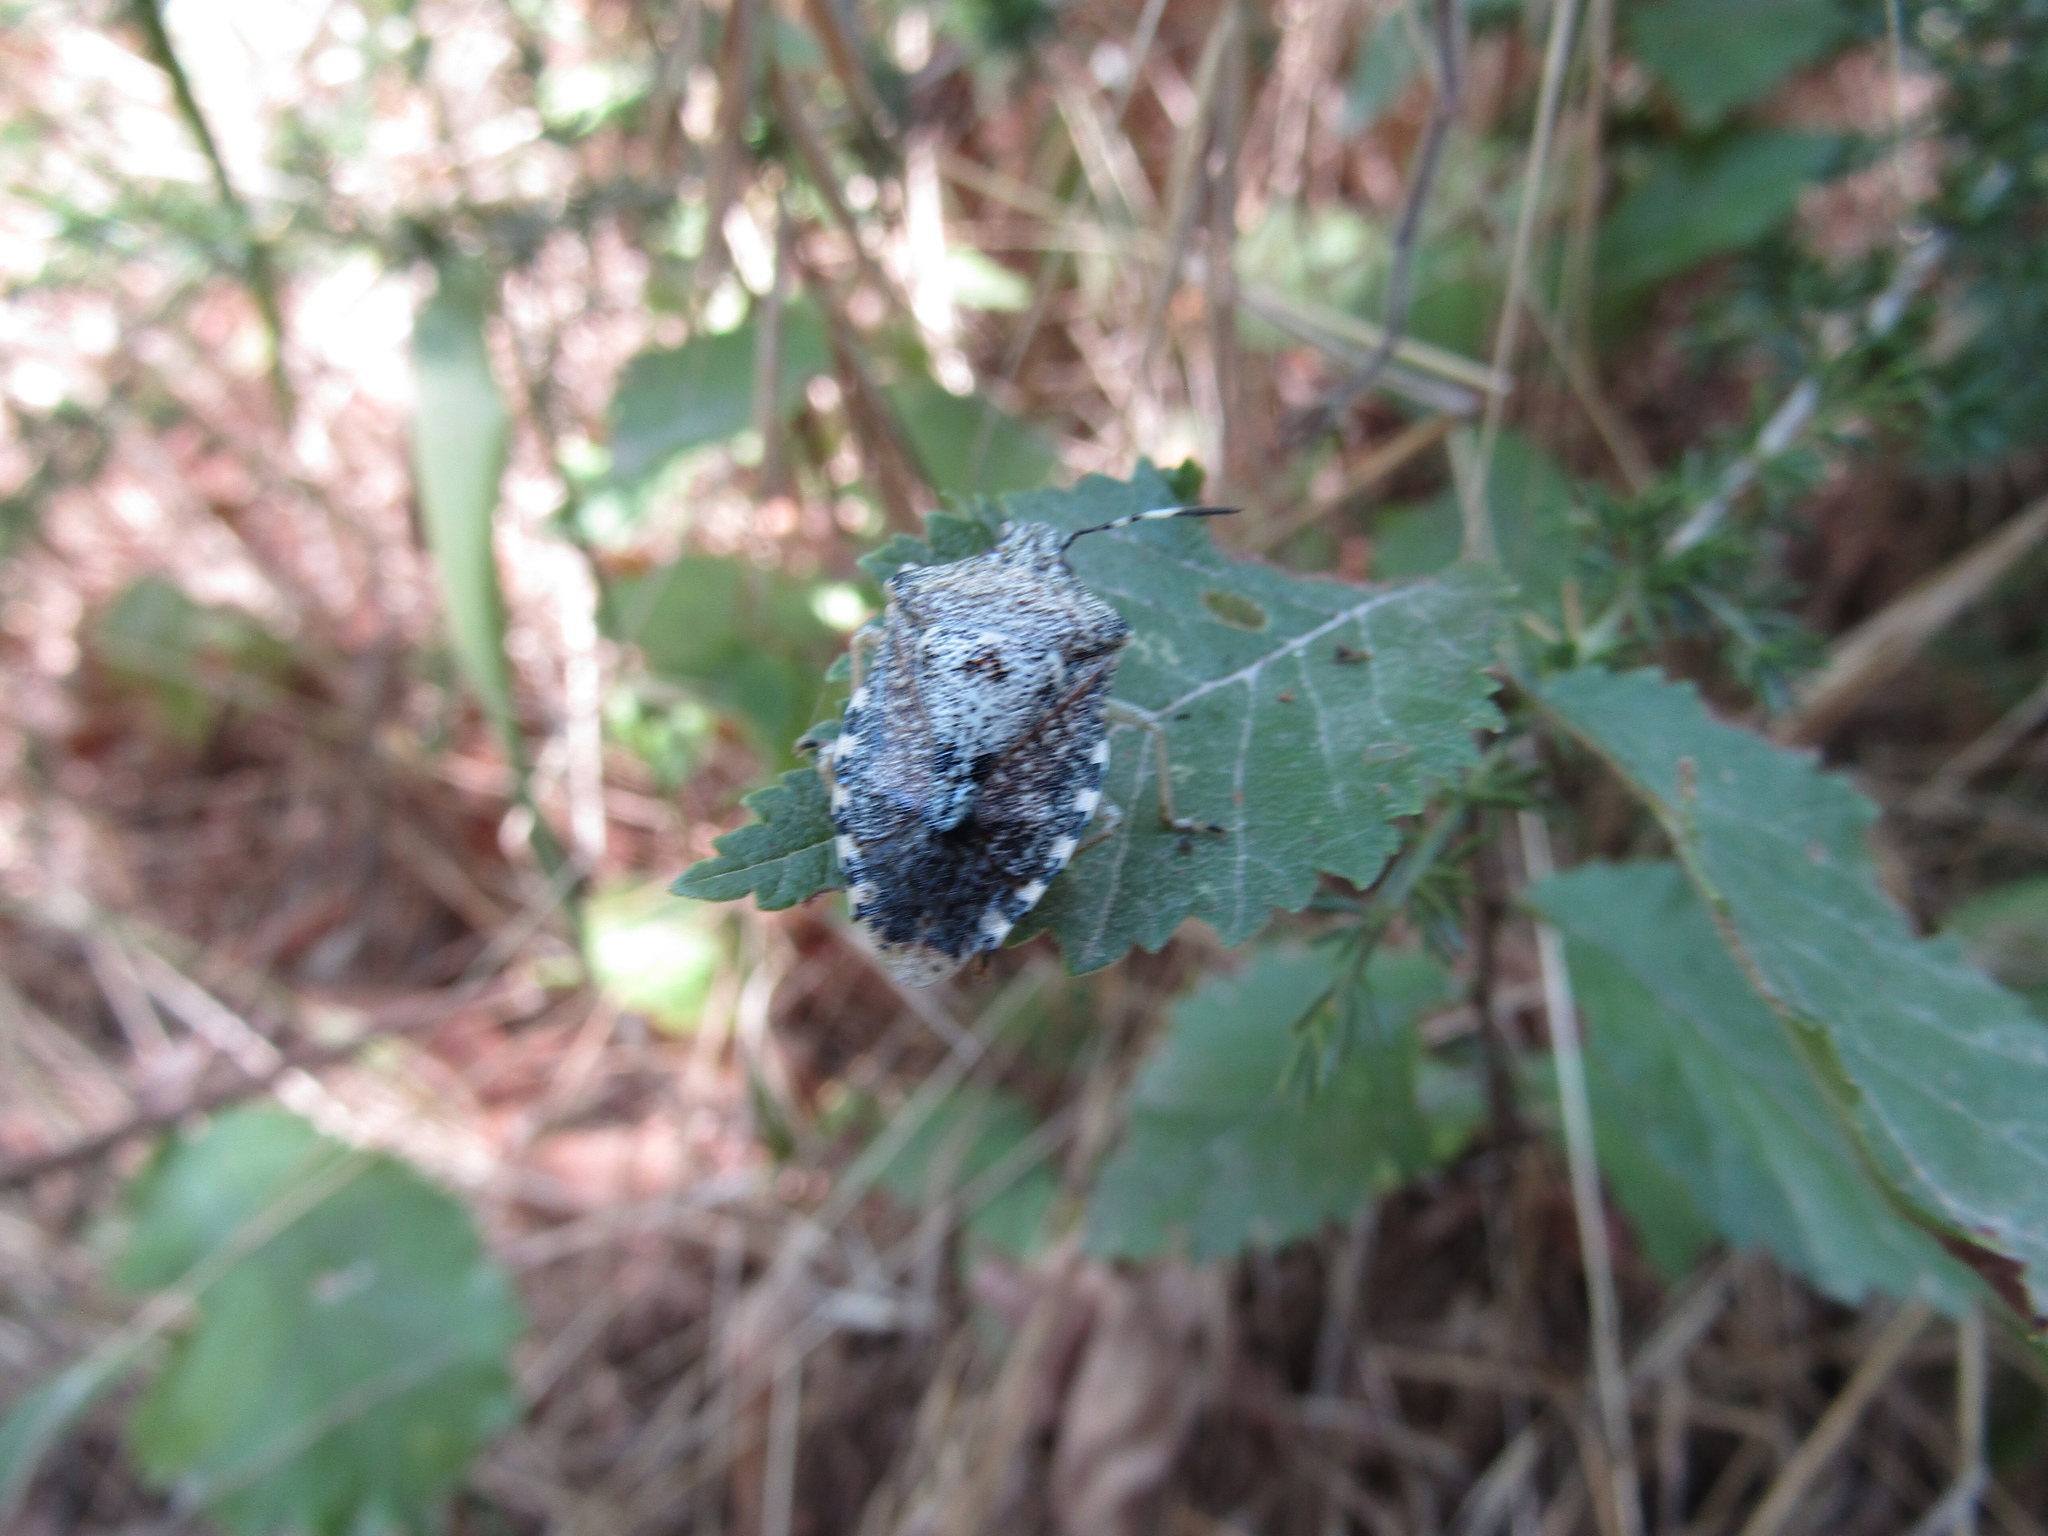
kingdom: Animalia
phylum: Arthropoda
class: Insecta
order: Hemiptera
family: Pentatomidae
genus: Rhaphigaster
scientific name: Rhaphigaster nebulosa
